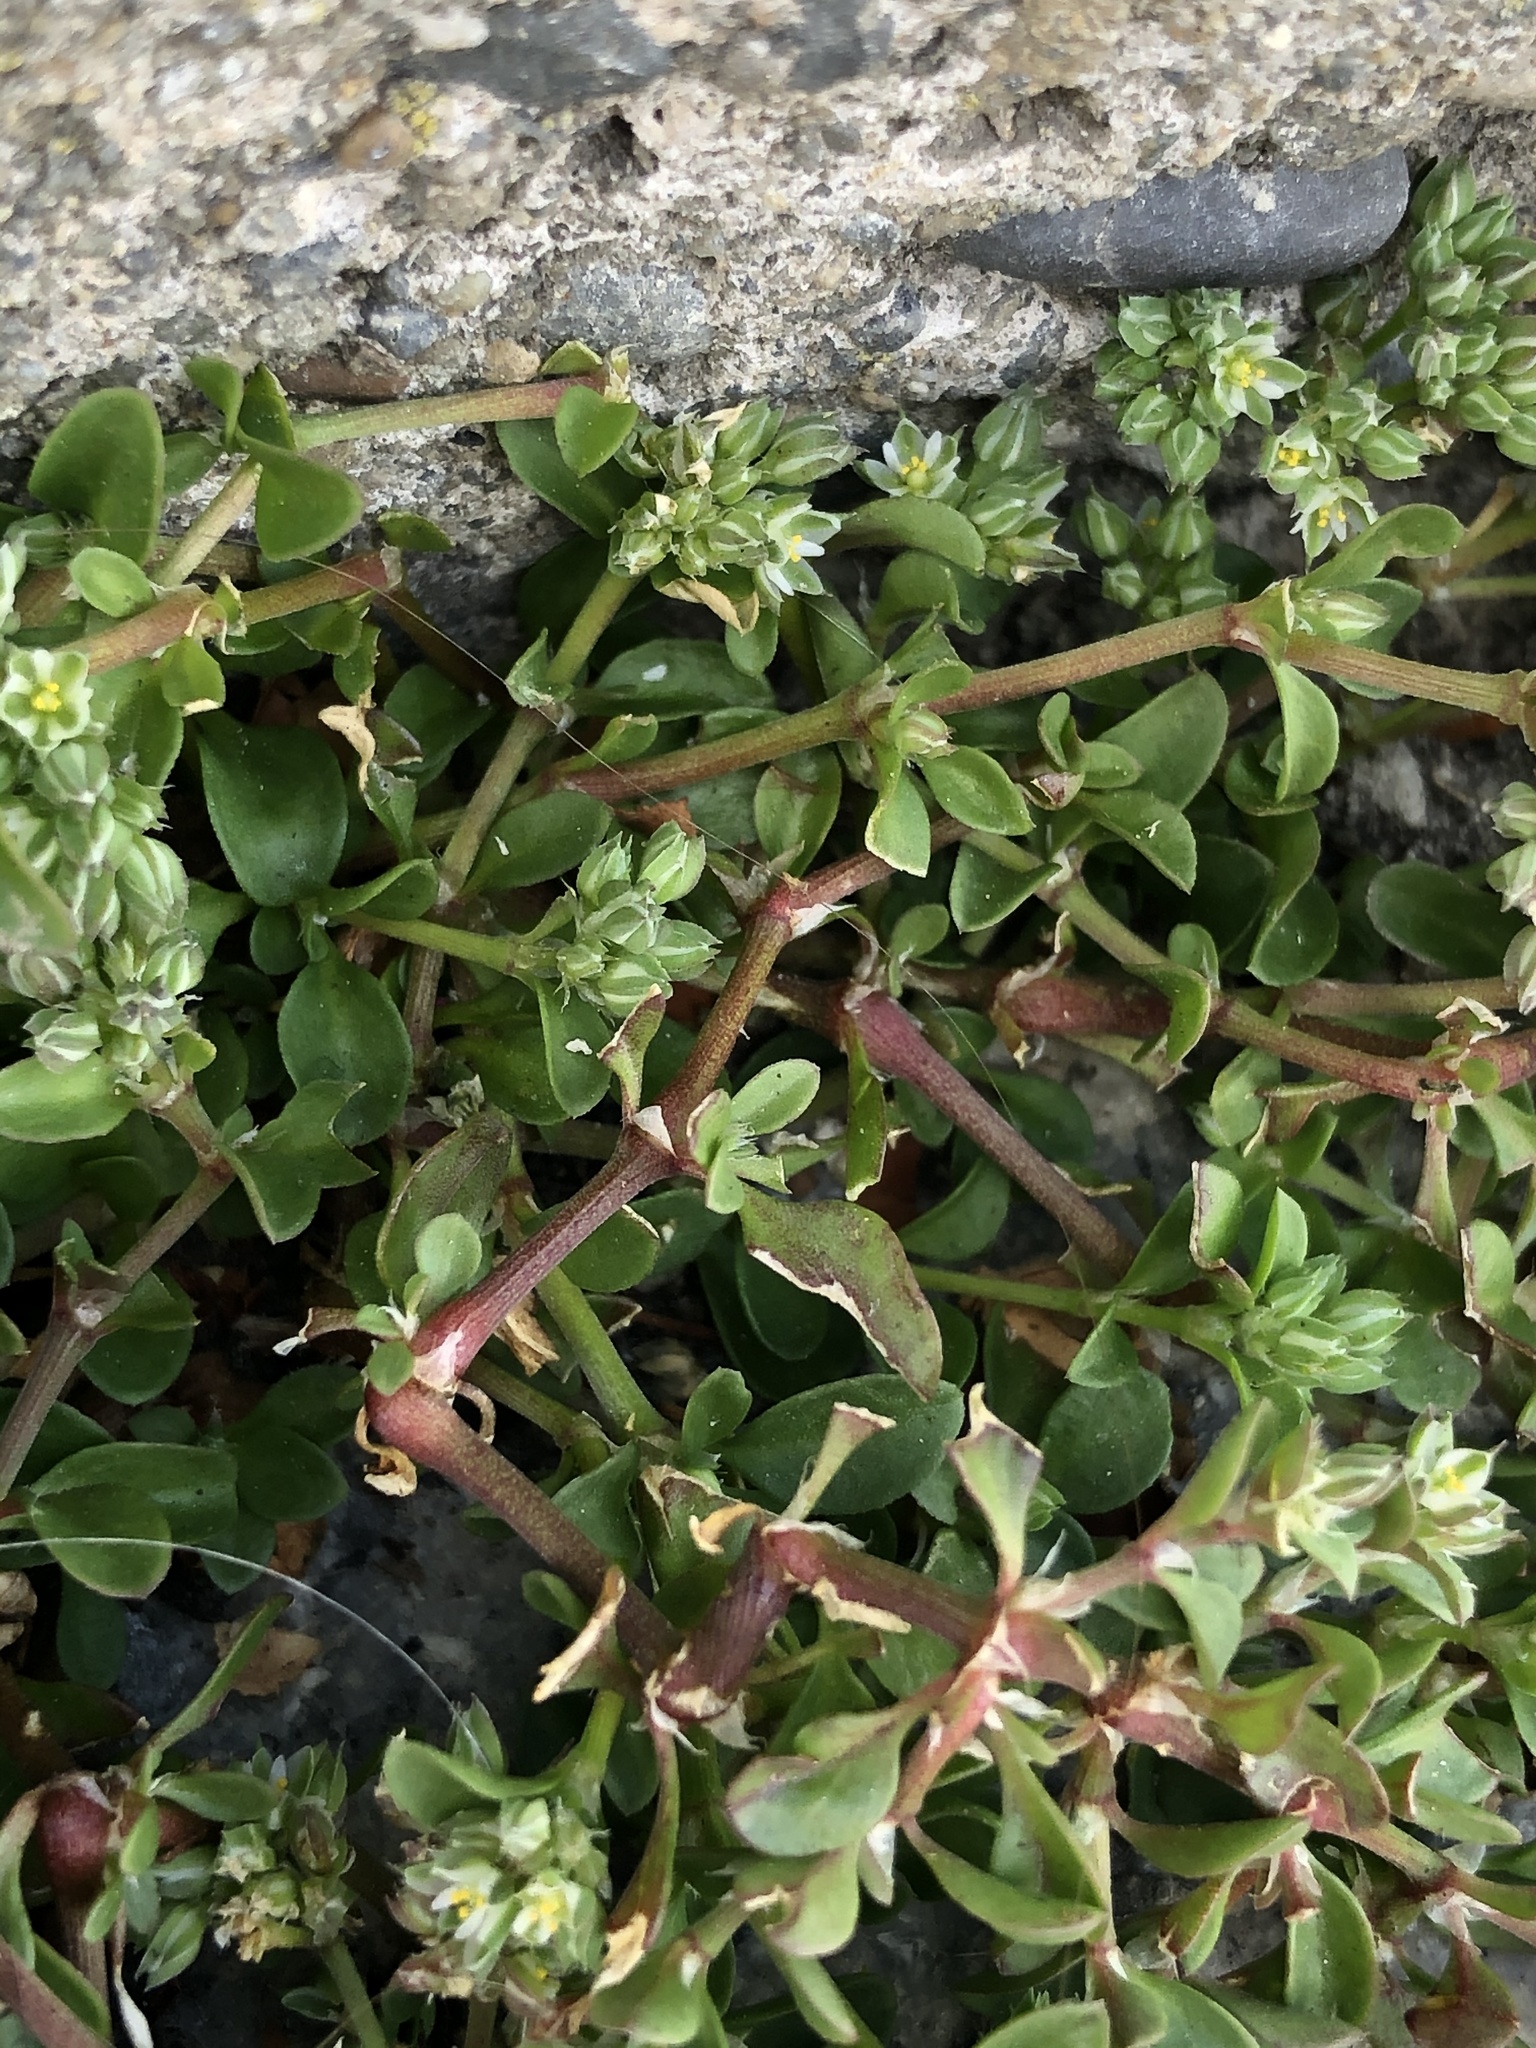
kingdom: Plantae
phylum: Tracheophyta
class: Magnoliopsida
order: Caryophyllales
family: Caryophyllaceae
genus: Polycarpon
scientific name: Polycarpon tetraphyllum
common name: Four-leaved all-seed
